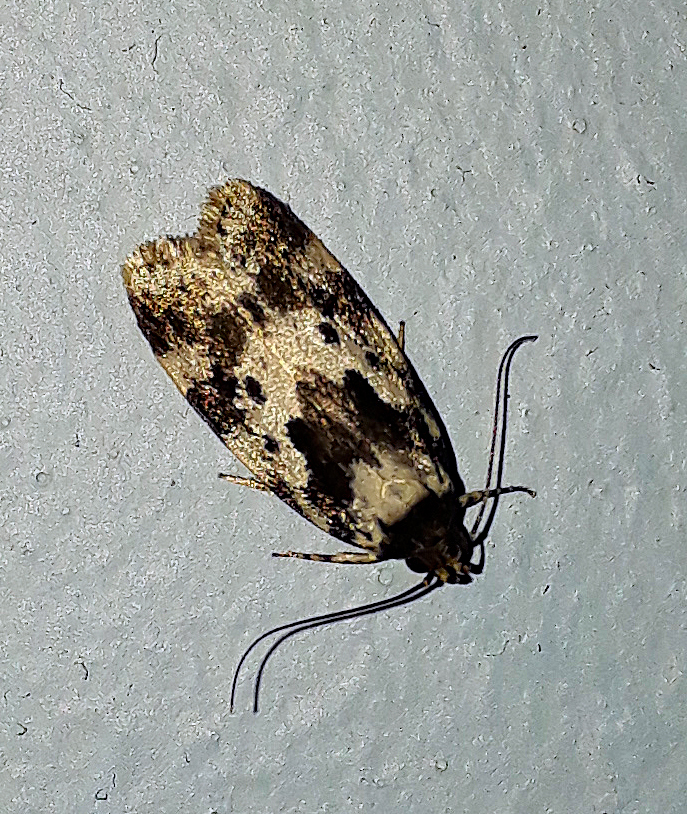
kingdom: Animalia
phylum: Arthropoda
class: Insecta
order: Lepidoptera
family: Oecophoridae
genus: Barea
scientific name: Barea confusella
